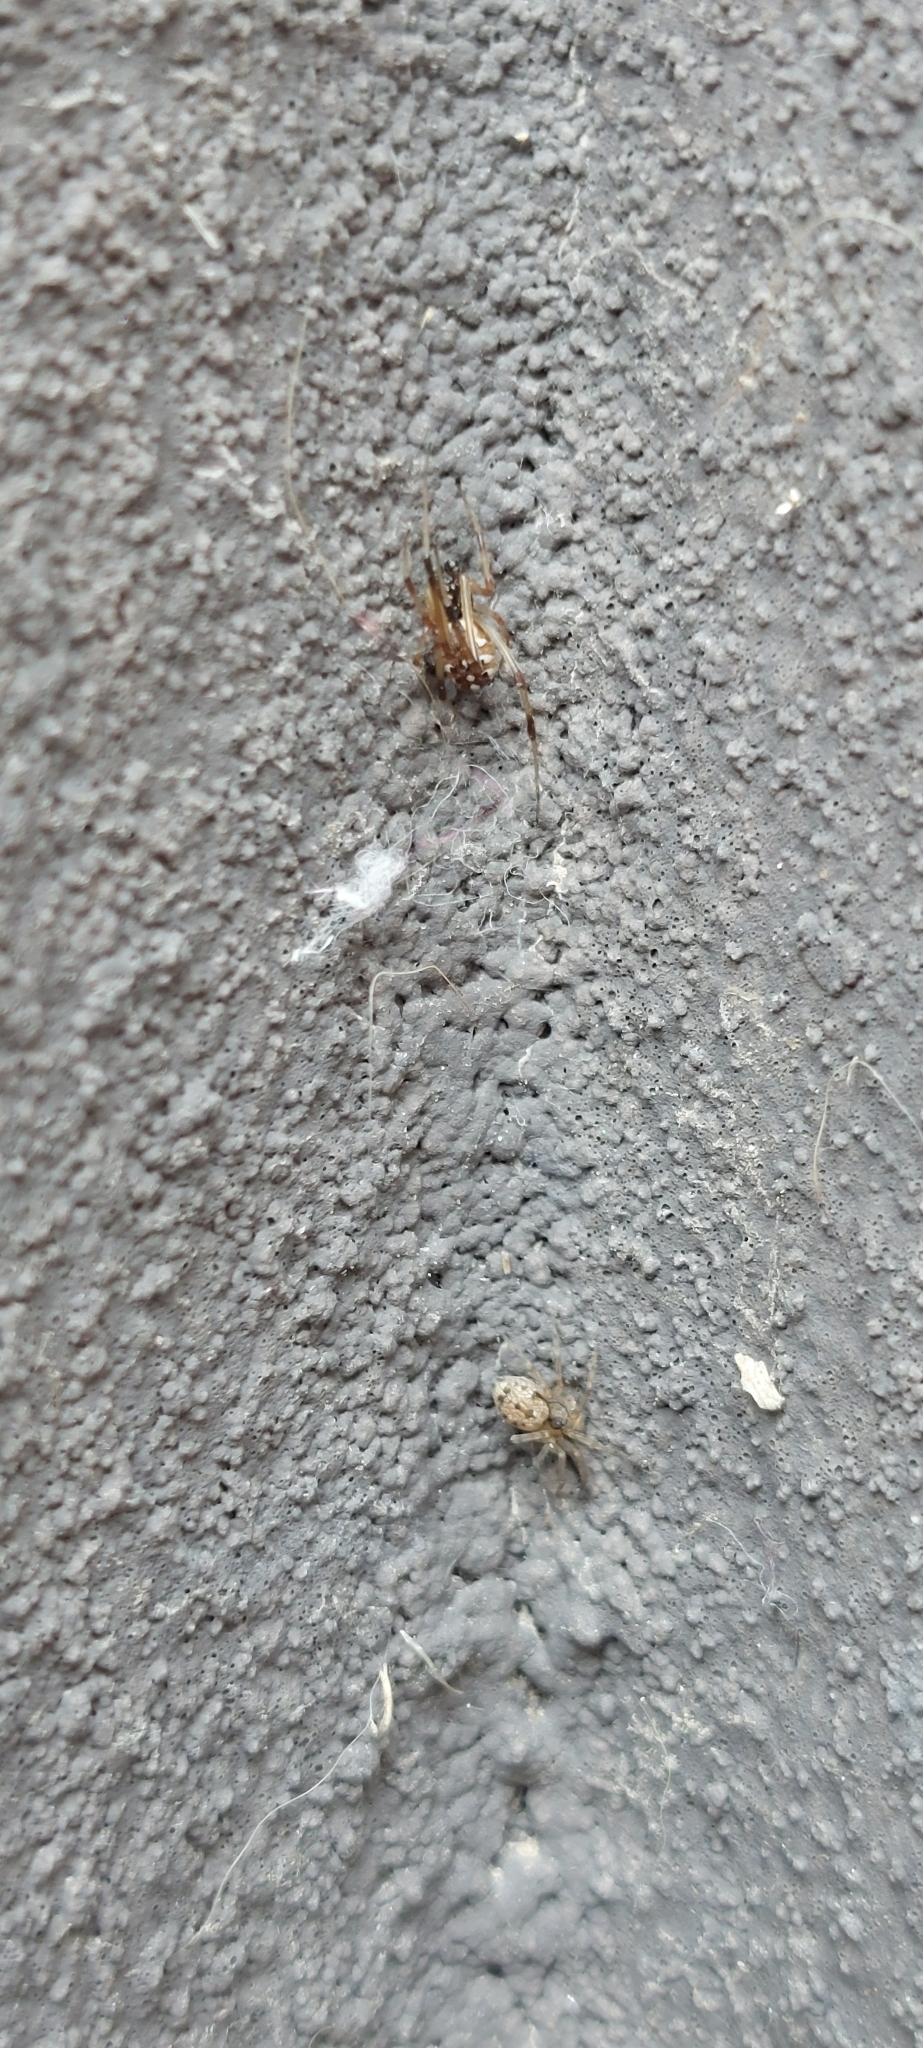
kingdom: Animalia
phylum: Arthropoda
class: Arachnida
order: Araneae
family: Theridiidae
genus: Latrodectus
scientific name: Latrodectus geometricus
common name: Brown widow spider
